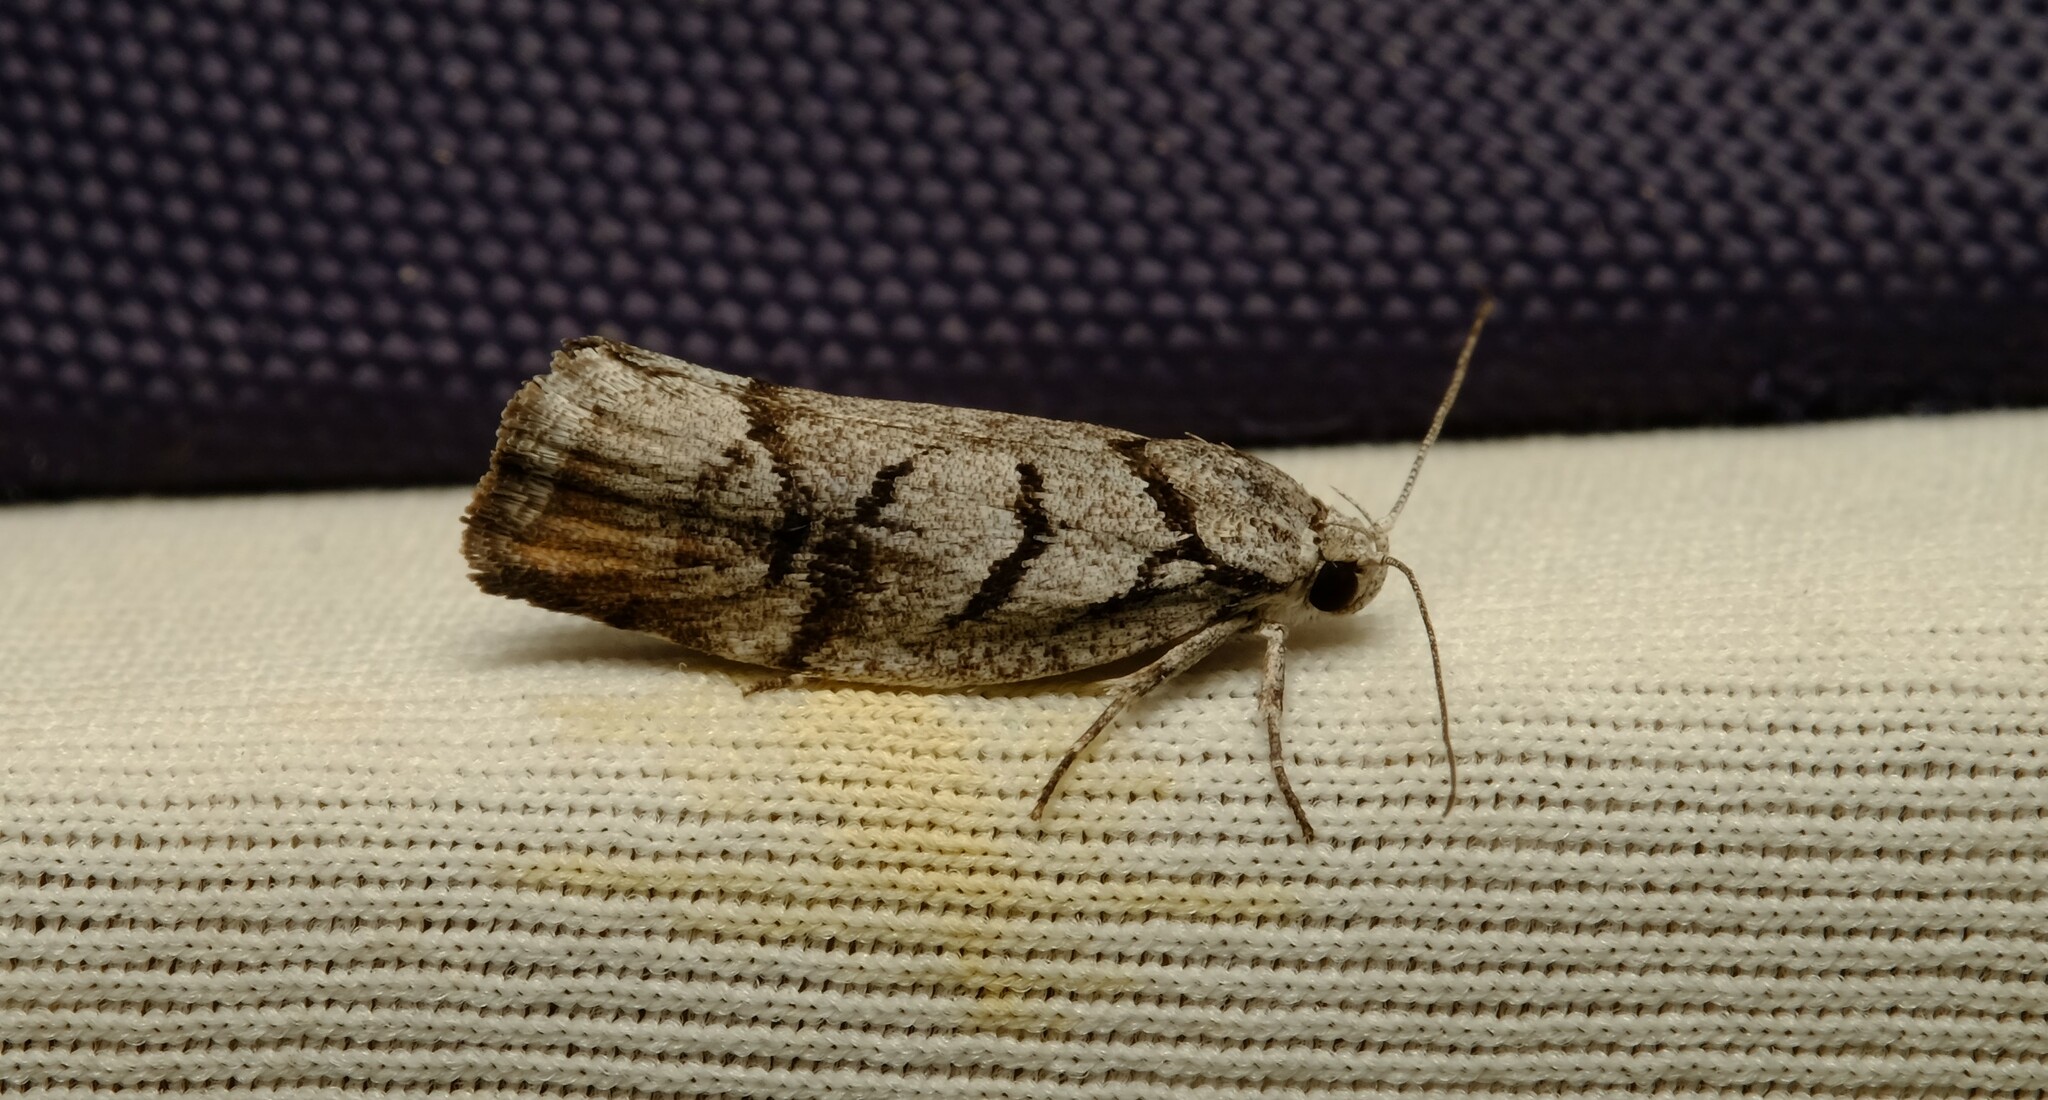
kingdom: Animalia
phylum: Arthropoda
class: Insecta
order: Lepidoptera
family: Xyloryctidae
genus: Lichenaula
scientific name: Lichenaula onychodes
